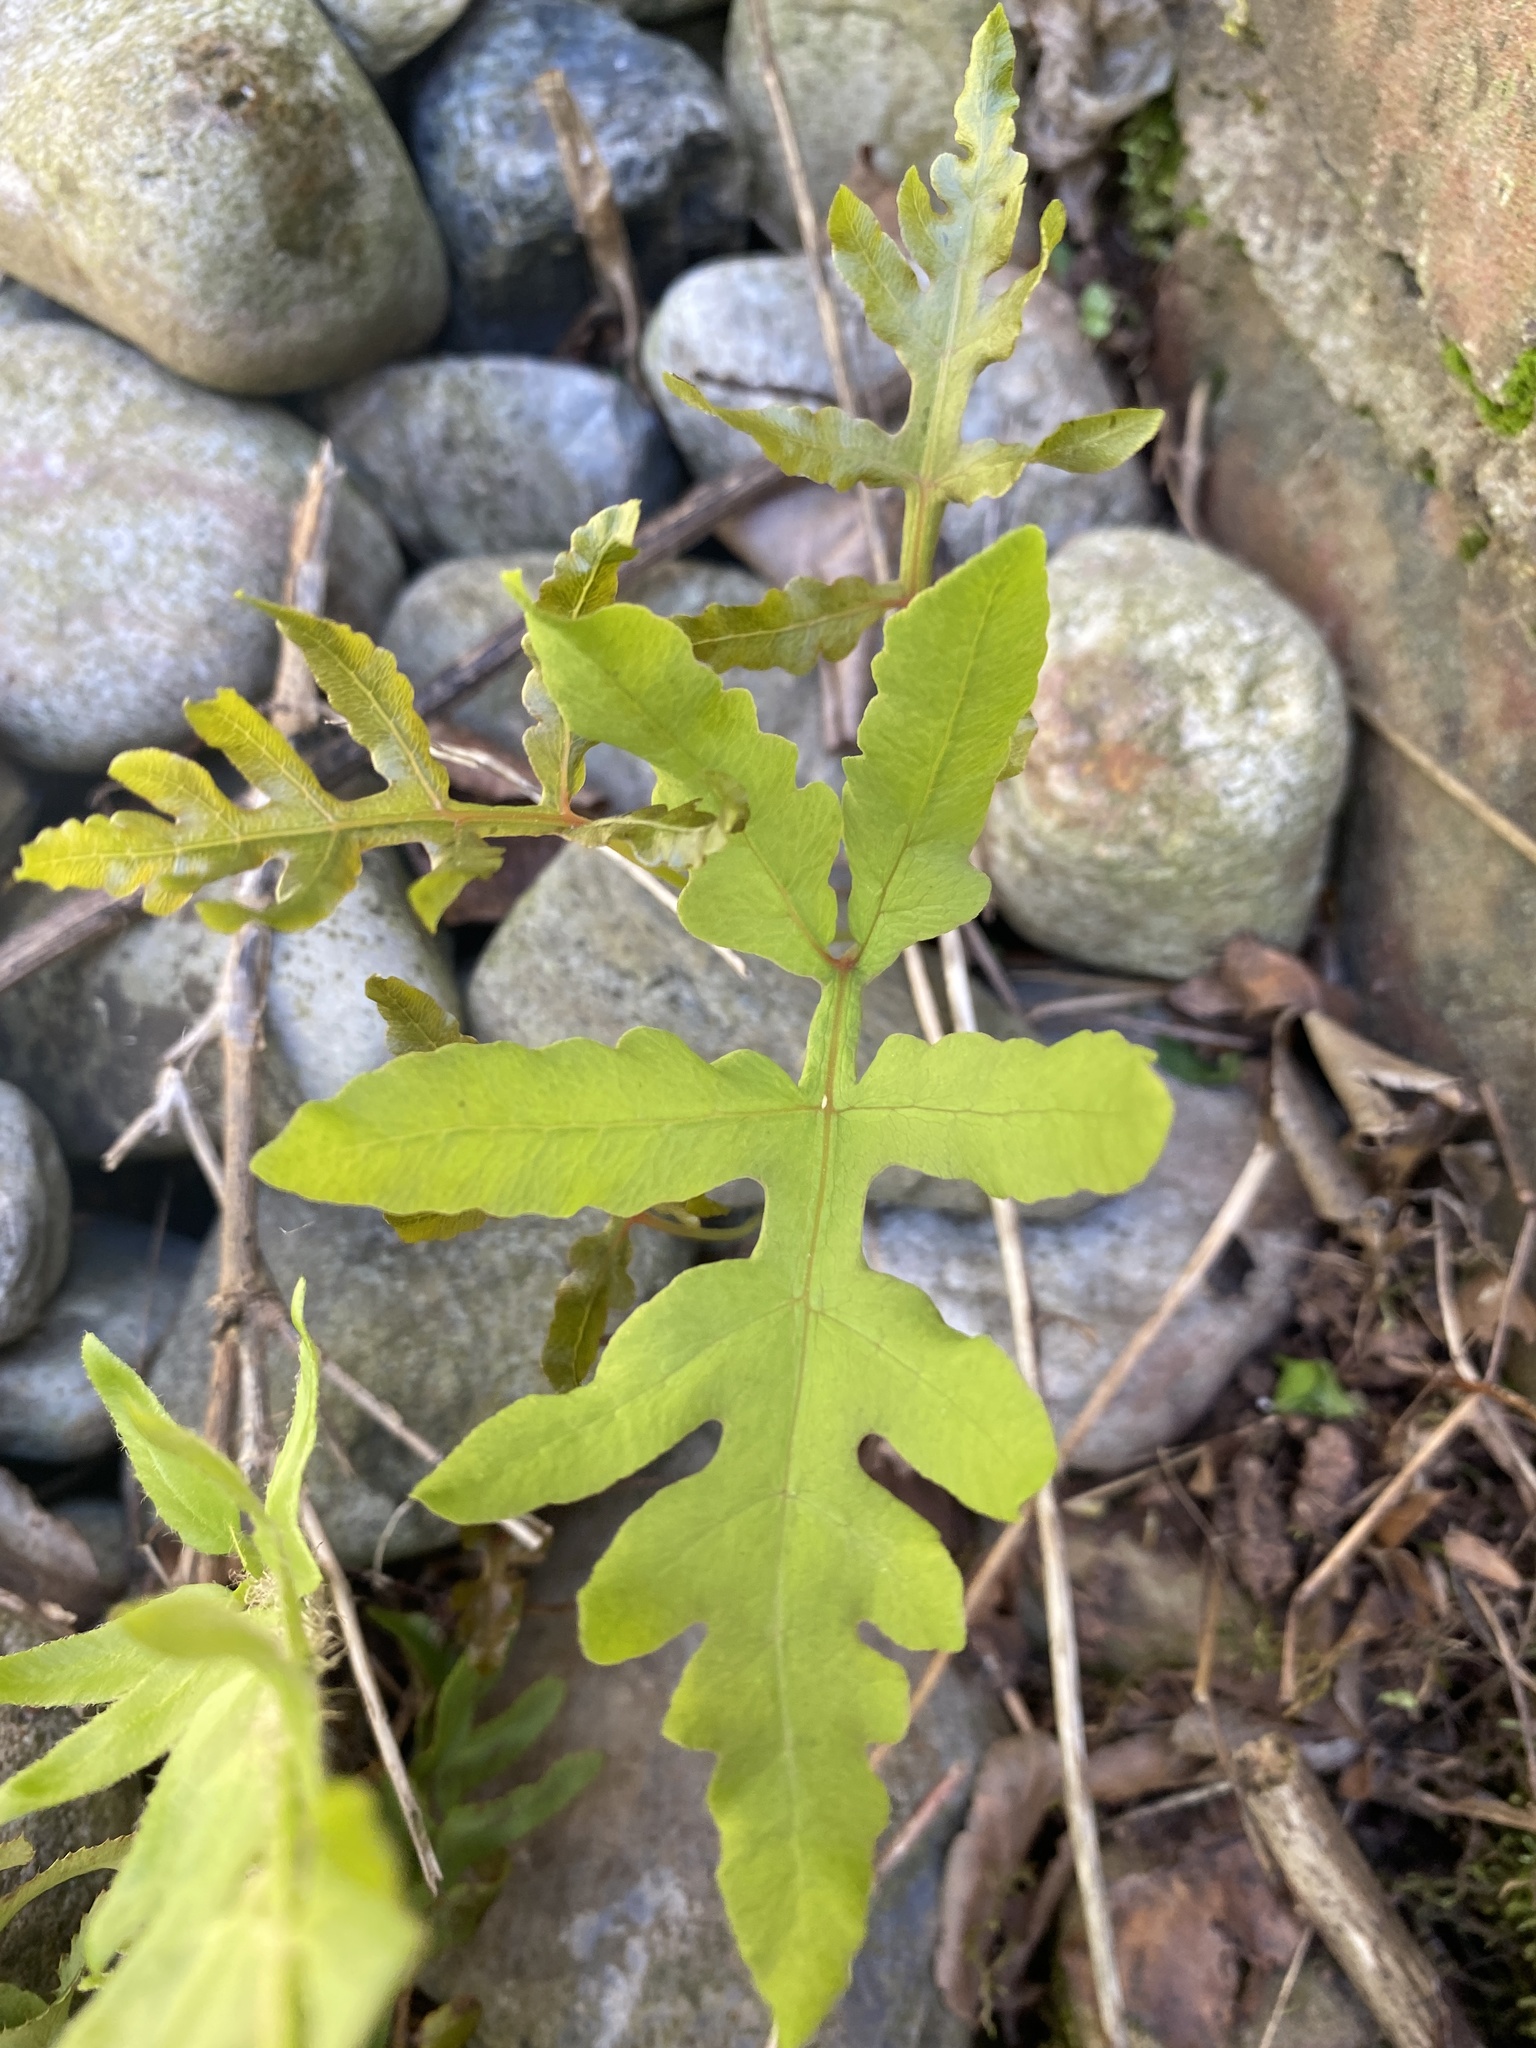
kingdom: Plantae
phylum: Tracheophyta
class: Polypodiopsida
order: Polypodiales
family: Onocleaceae
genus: Onoclea
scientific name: Onoclea sensibilis
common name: Sensitive fern
